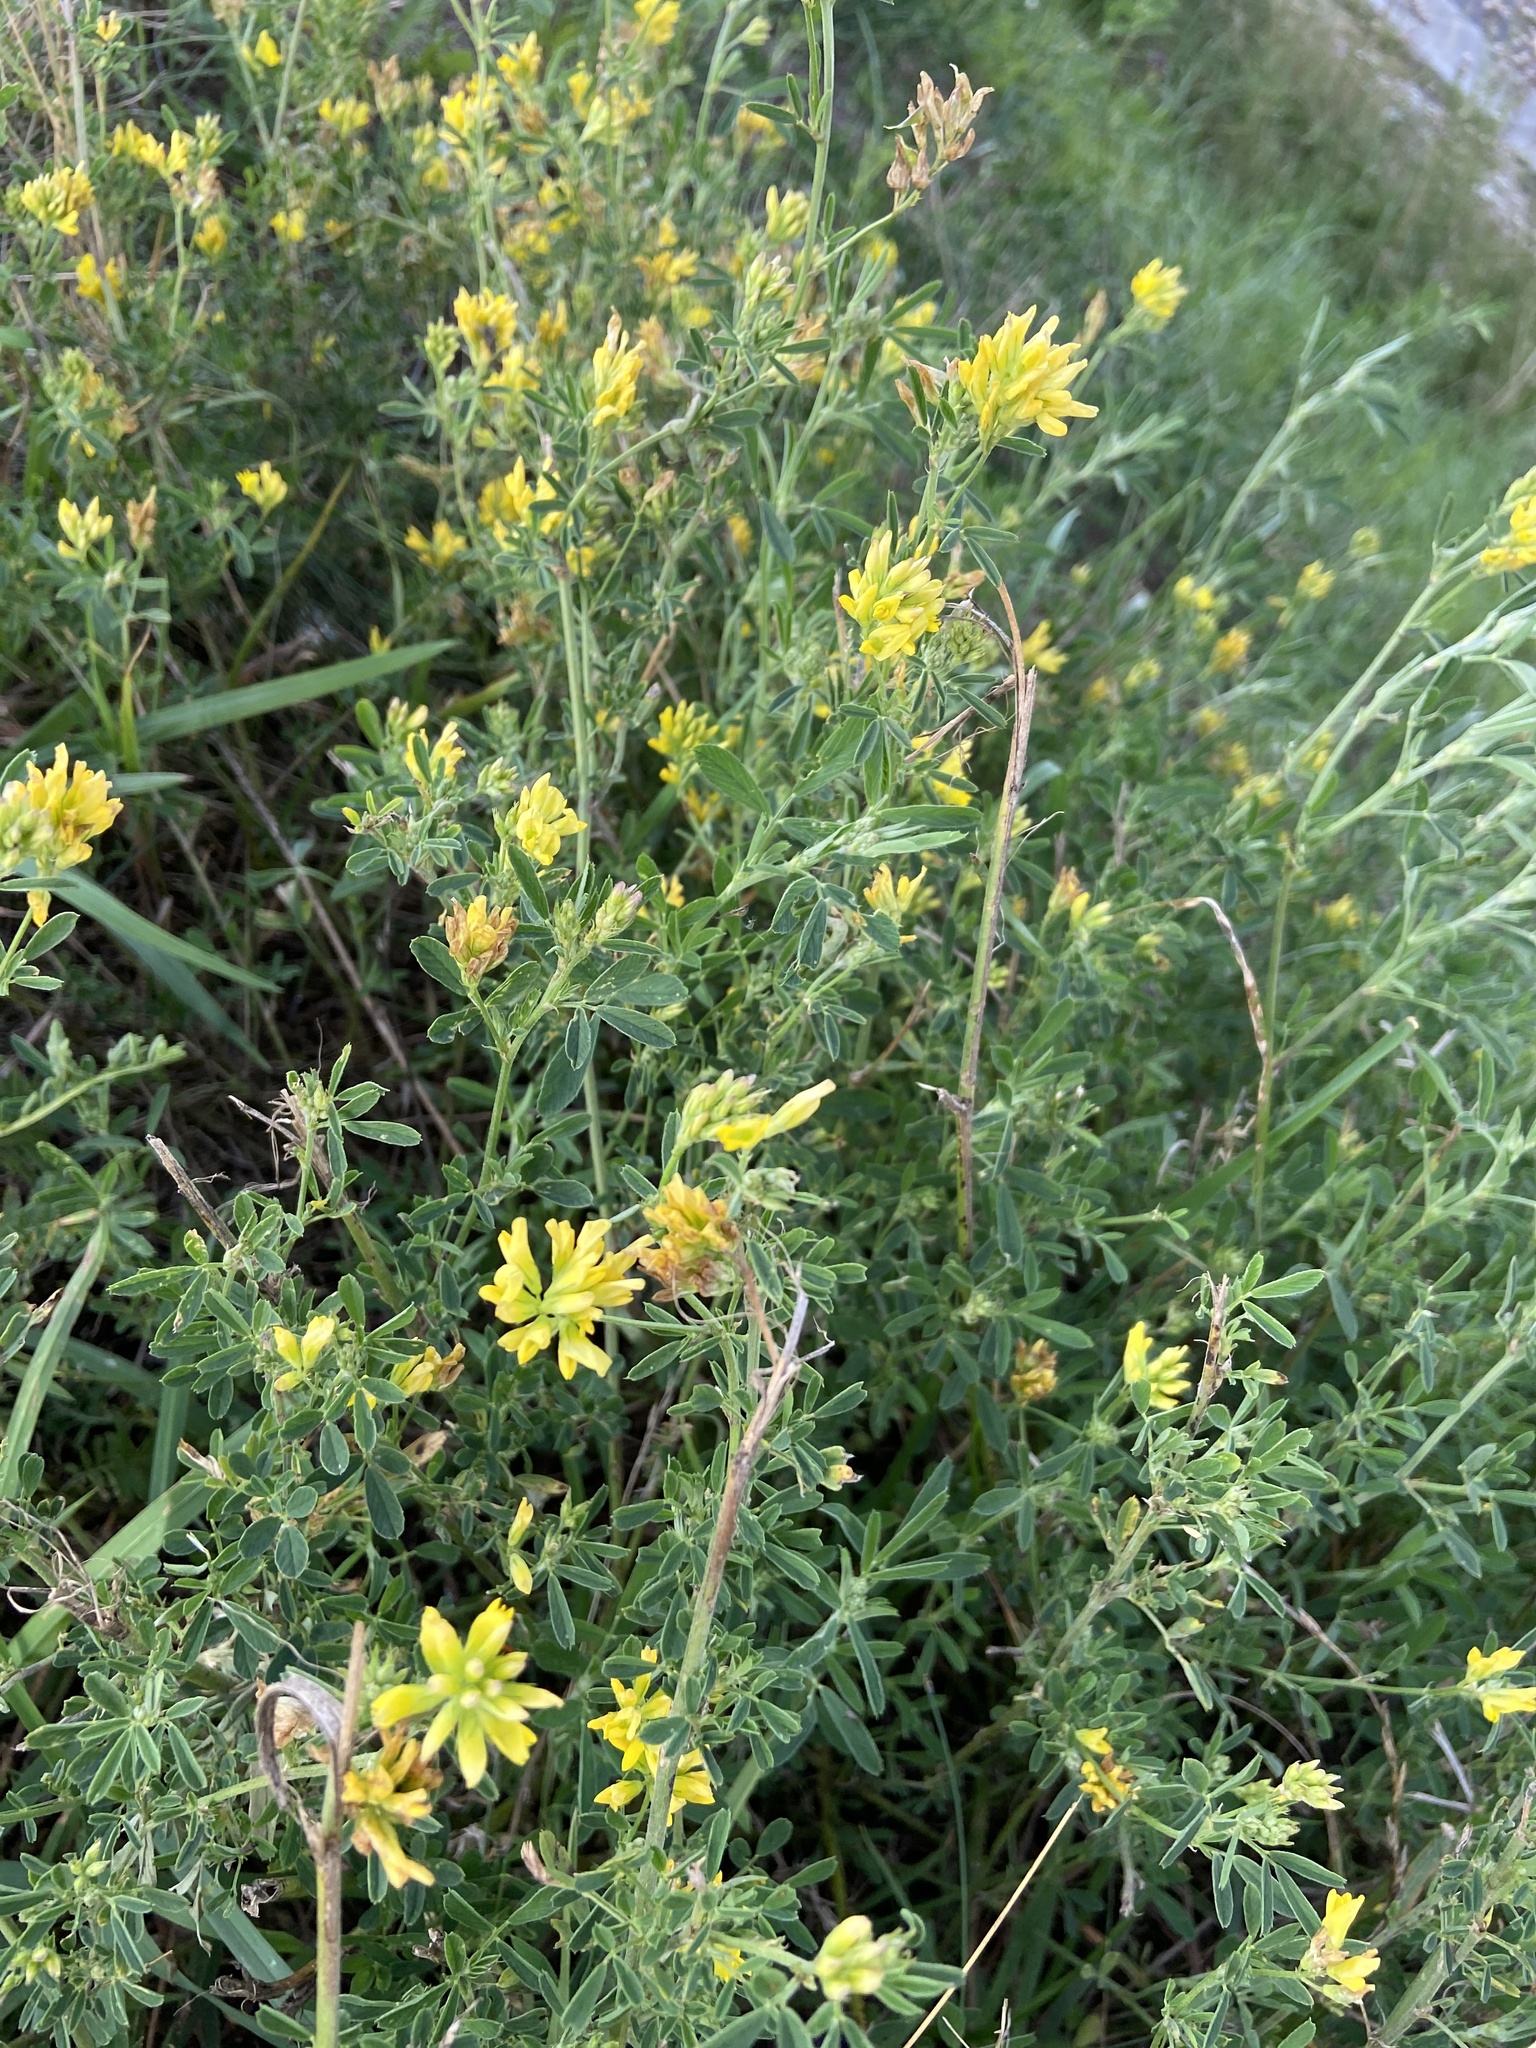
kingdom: Plantae
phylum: Tracheophyta
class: Magnoliopsida
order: Fabales
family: Fabaceae
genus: Medicago
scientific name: Medicago falcata
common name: Sickle medick
